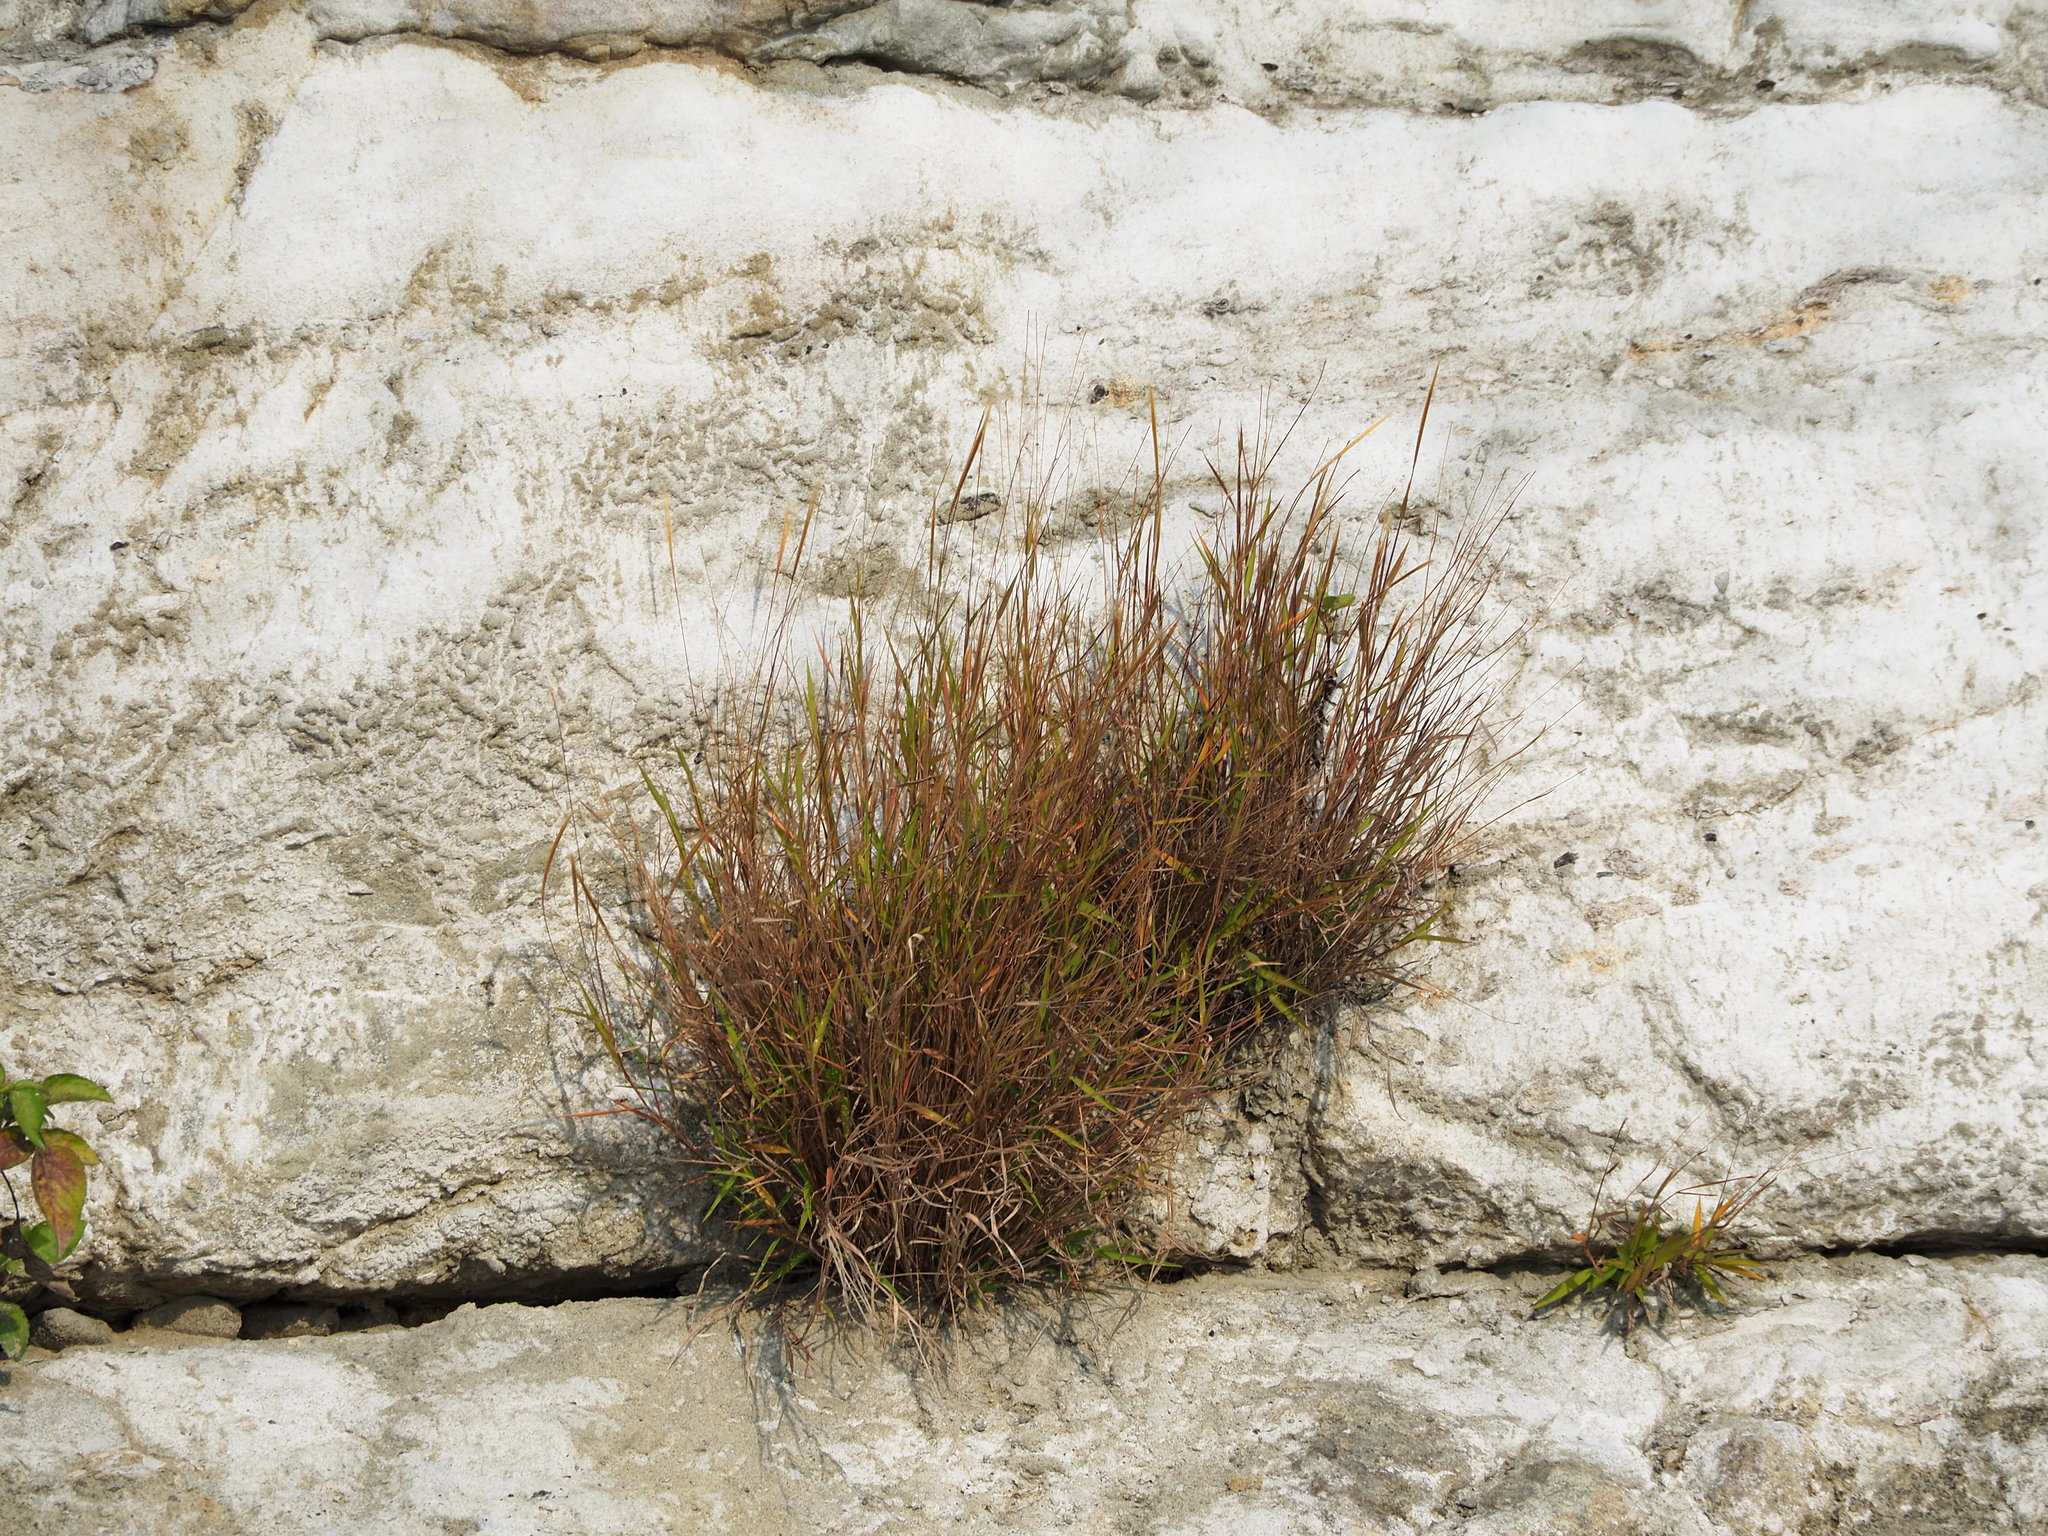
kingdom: Plantae
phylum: Tracheophyta
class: Liliopsida
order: Poales
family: Poaceae
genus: Pogonatherum
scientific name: Pogonatherum crinitum
